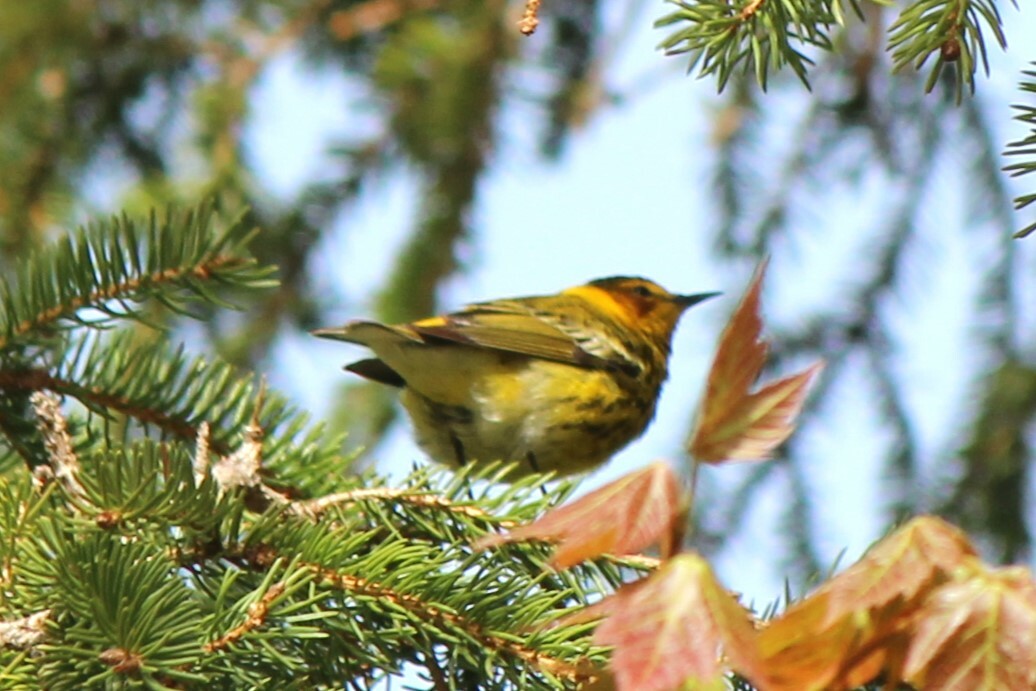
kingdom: Animalia
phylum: Chordata
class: Aves
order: Passeriformes
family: Parulidae
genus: Setophaga
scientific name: Setophaga tigrina
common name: Cape may warbler
